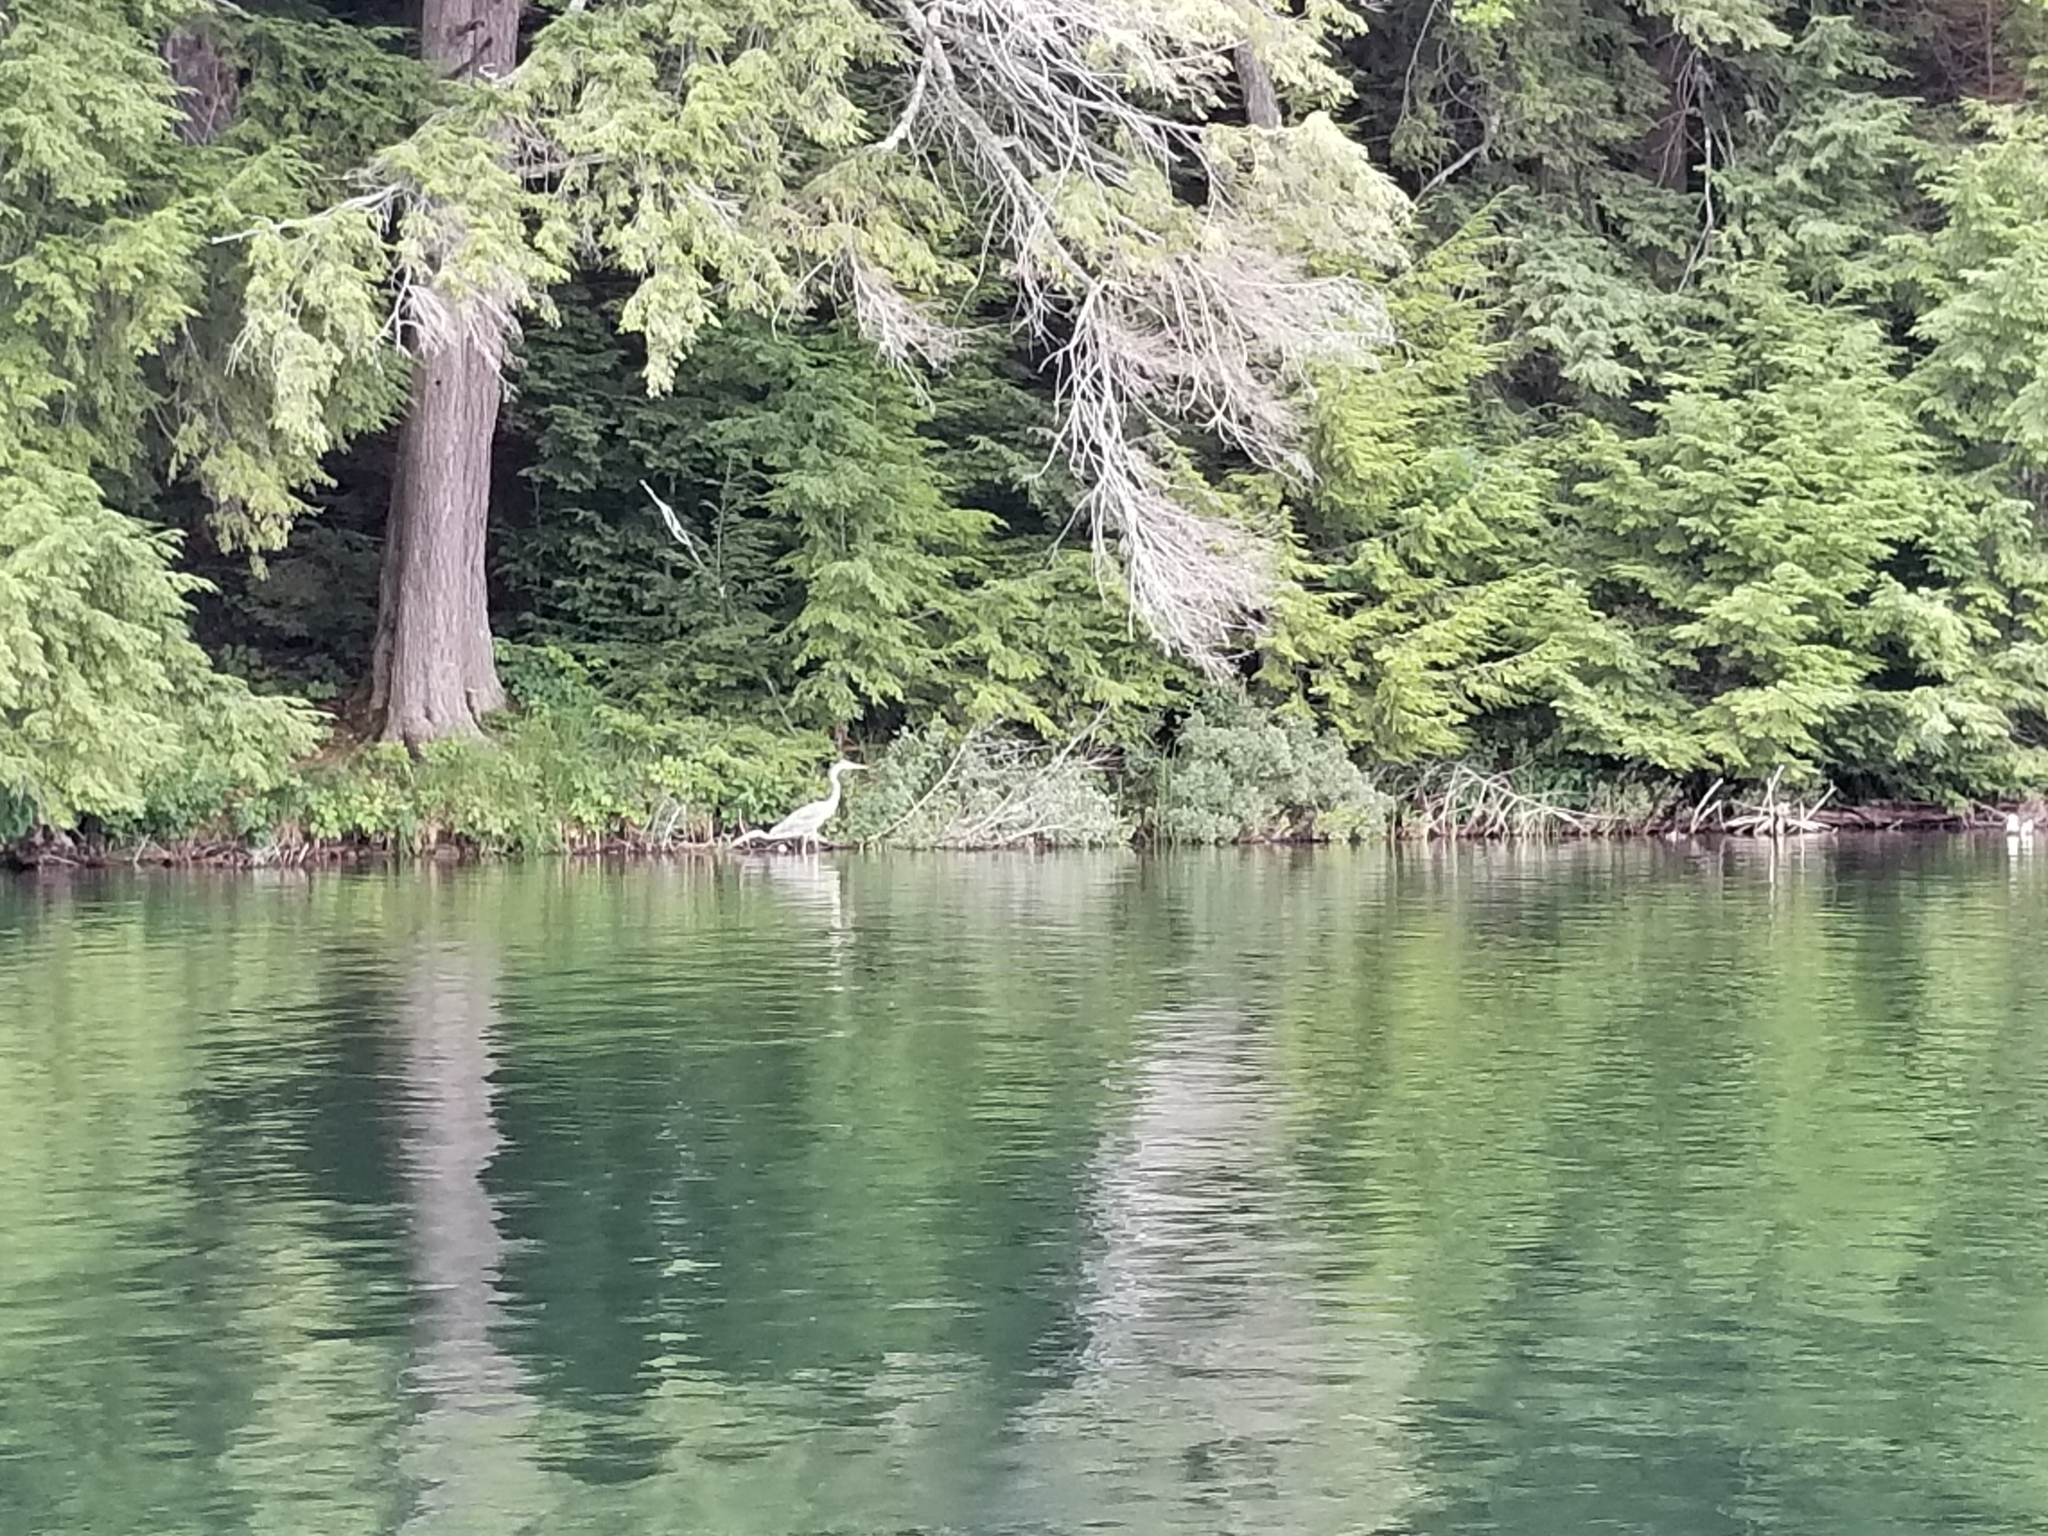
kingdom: Animalia
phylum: Chordata
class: Aves
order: Pelecaniformes
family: Ardeidae
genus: Ardea
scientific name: Ardea herodias
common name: Great blue heron
